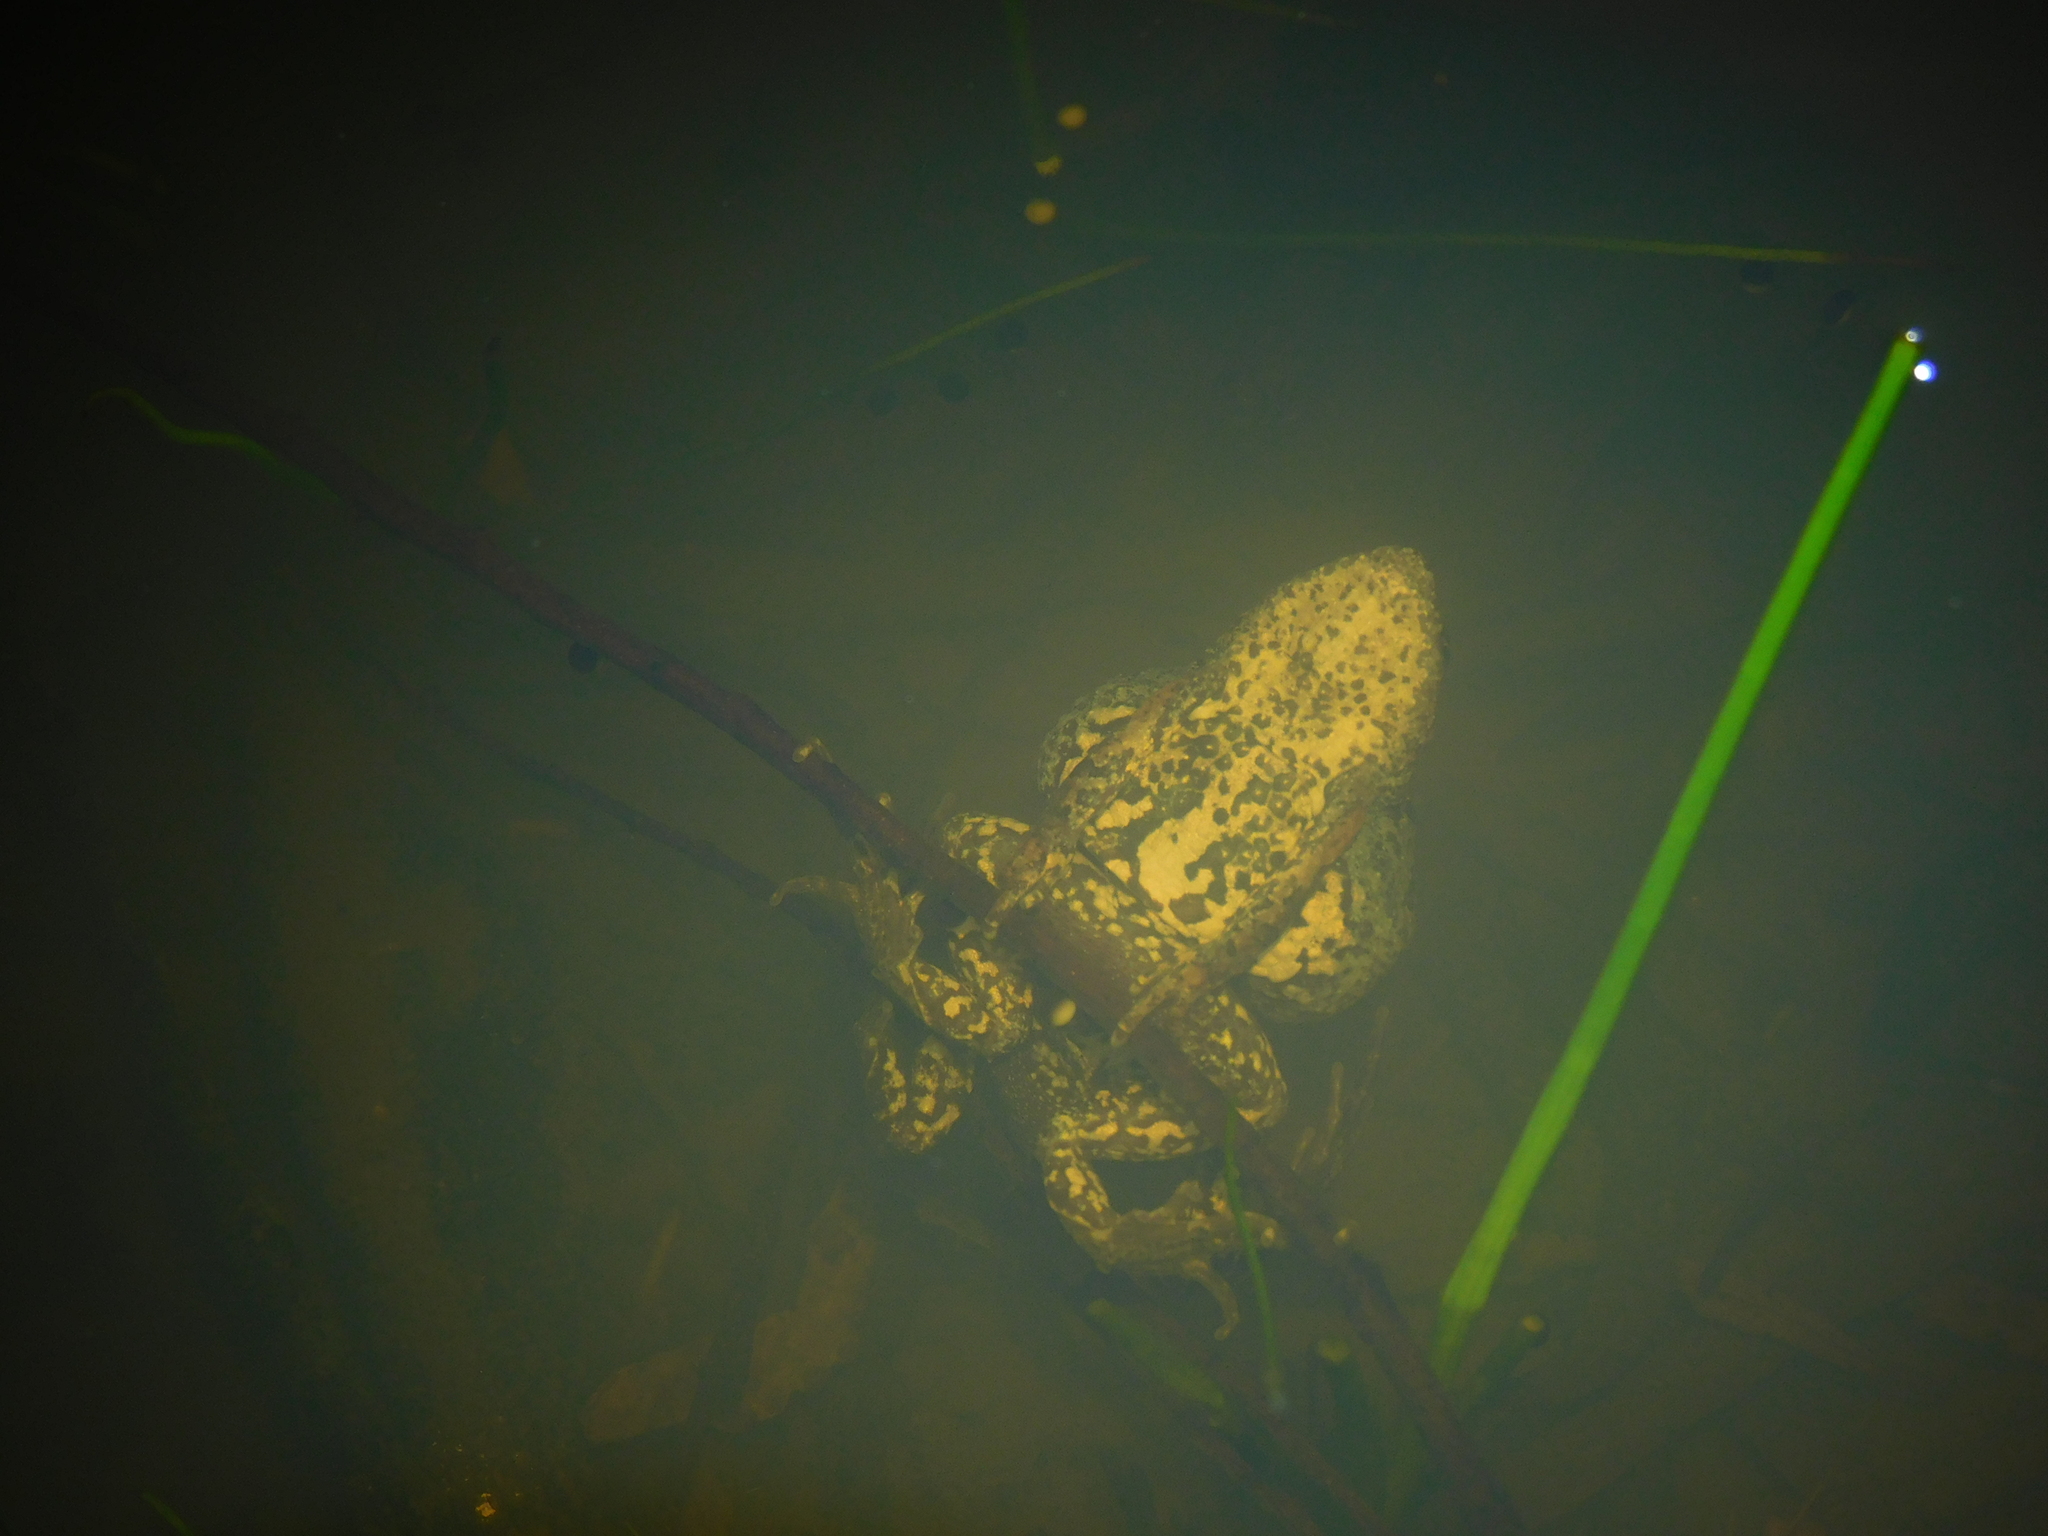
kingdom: Animalia
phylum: Chordata
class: Amphibia
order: Anura
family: Myobatrachidae
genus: Crinia
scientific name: Crinia signifera
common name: Brown froglet
